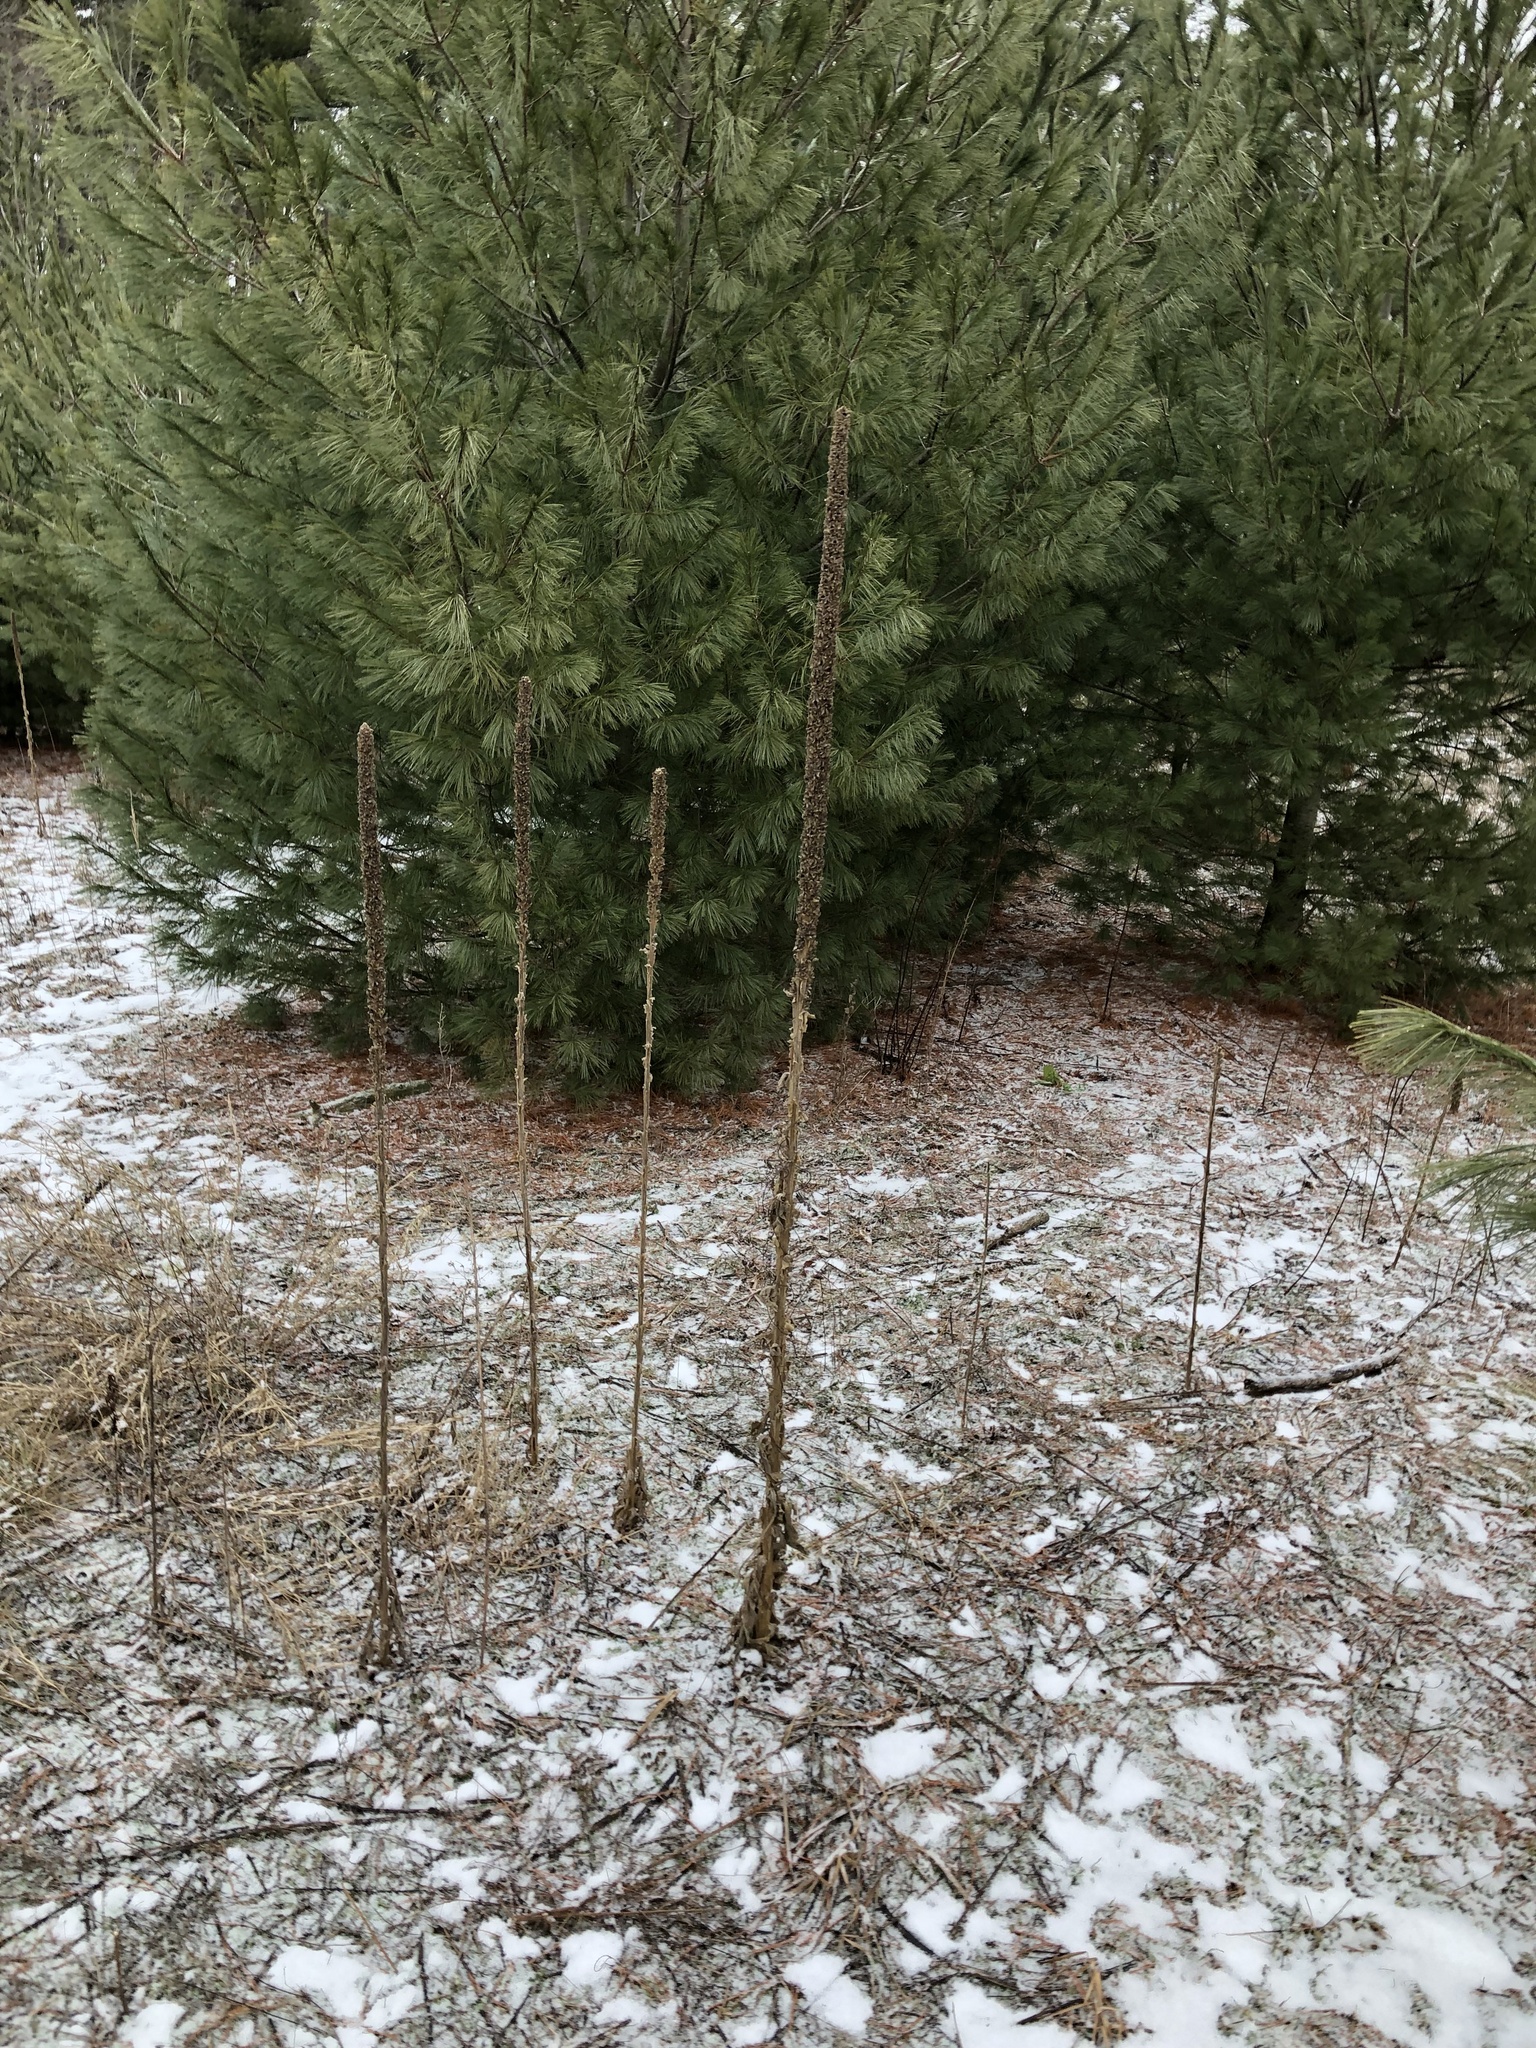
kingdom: Plantae
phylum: Tracheophyta
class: Magnoliopsida
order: Lamiales
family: Scrophulariaceae
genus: Verbascum
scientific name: Verbascum thapsus
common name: Common mullein
